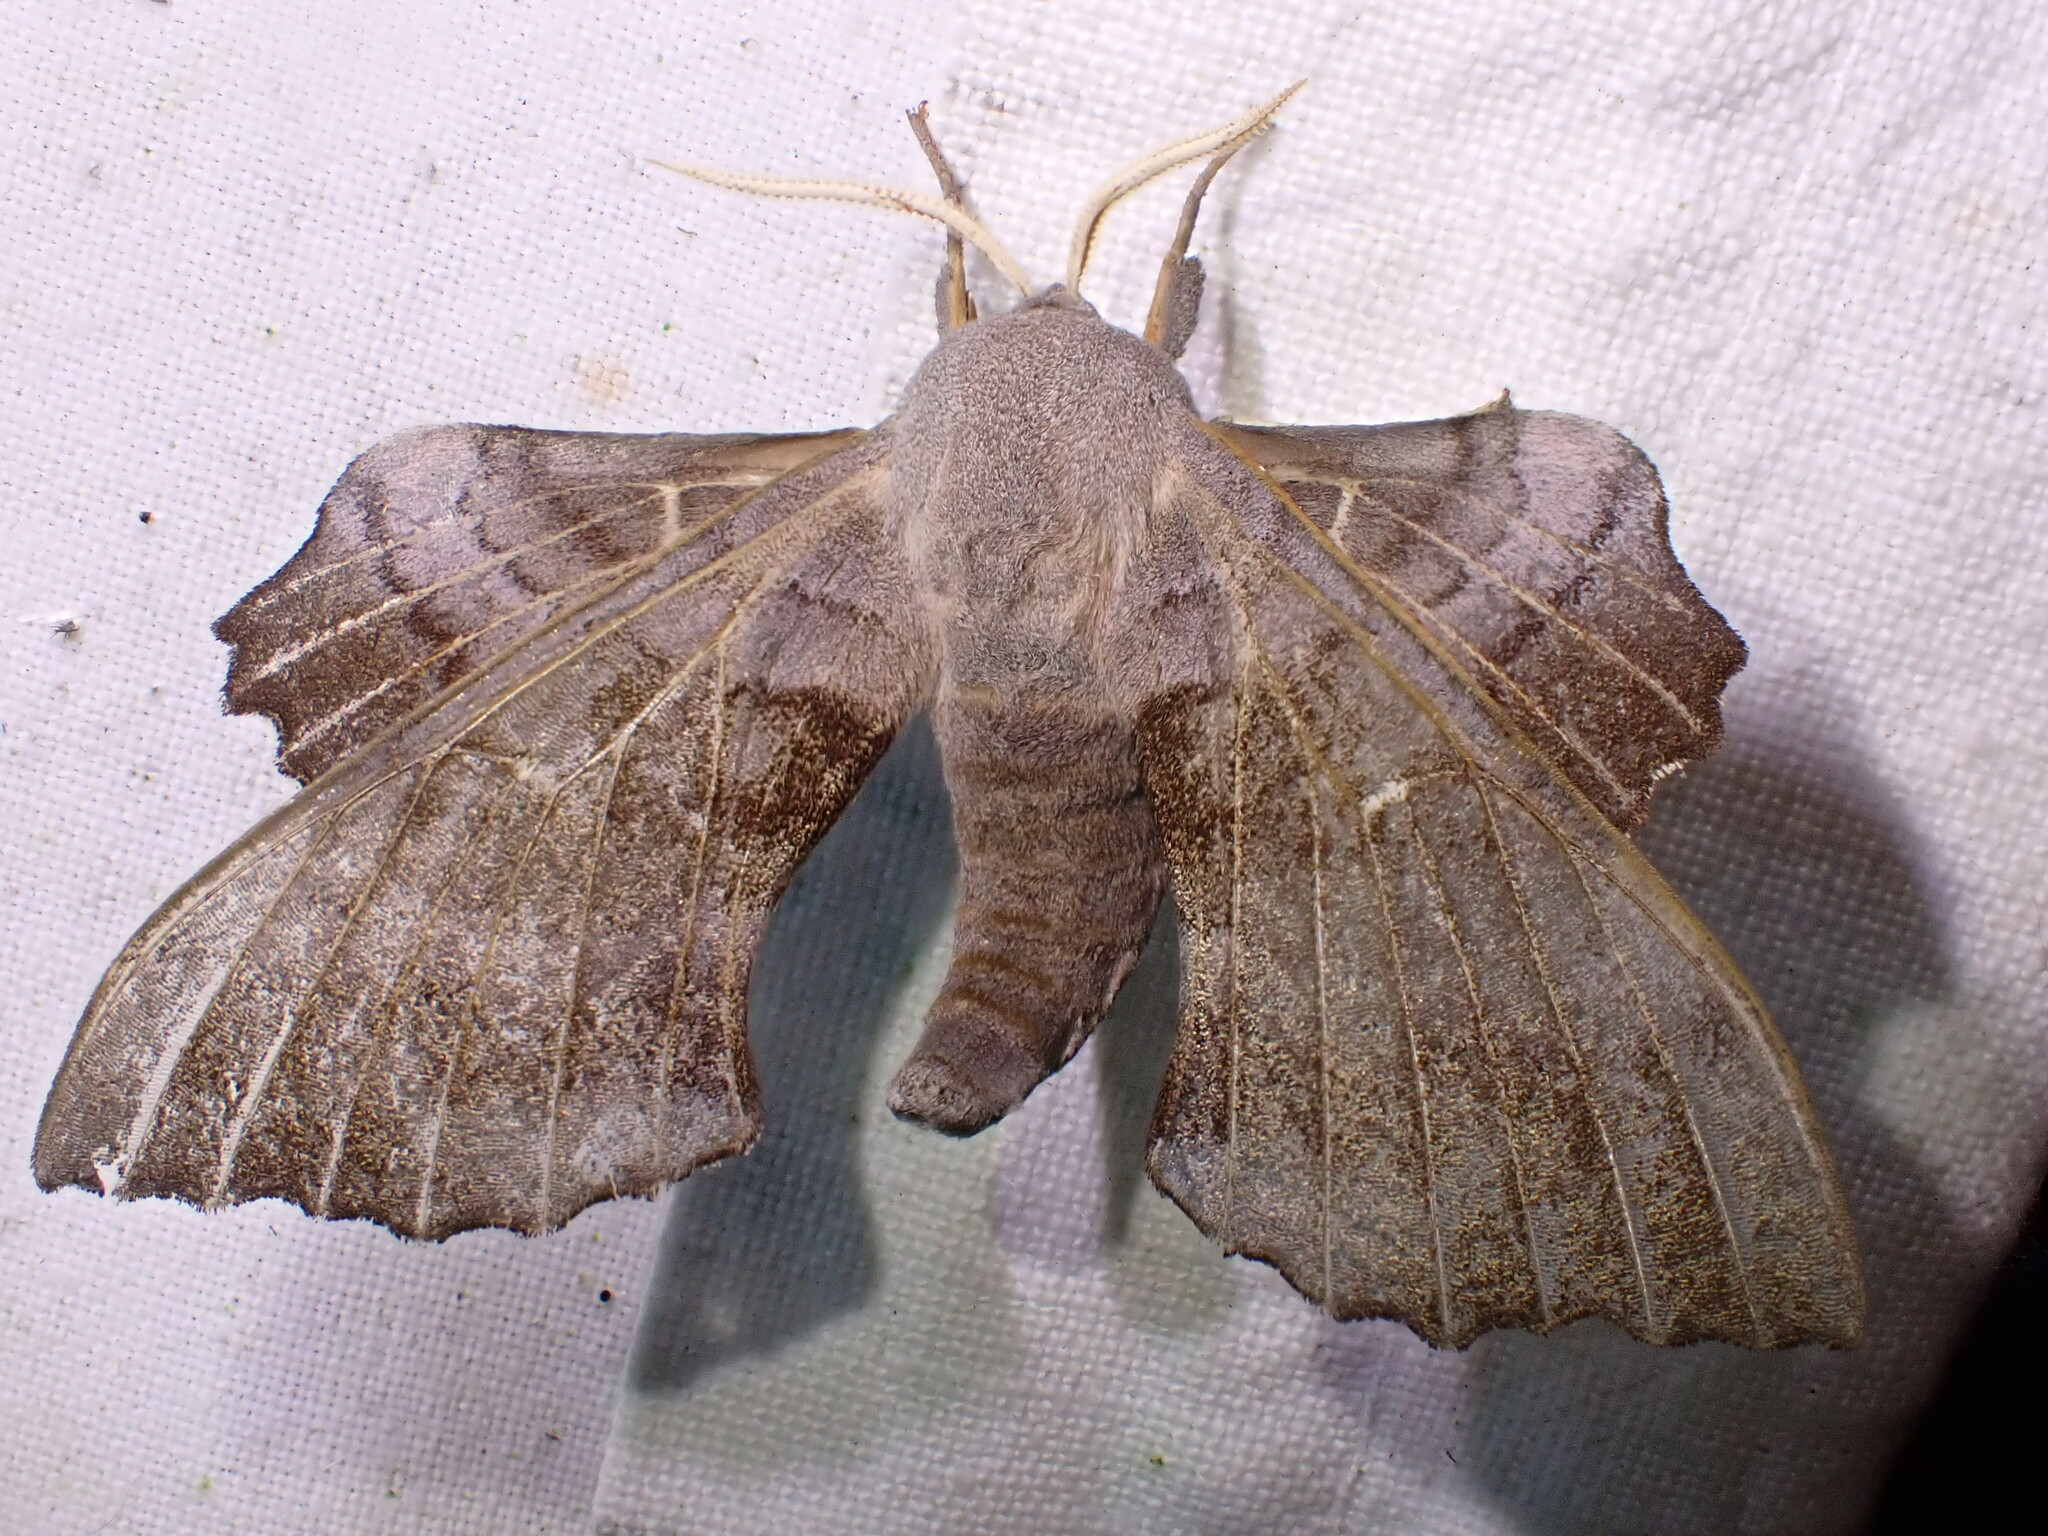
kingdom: Animalia
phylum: Arthropoda
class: Insecta
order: Lepidoptera
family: Sphingidae
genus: Laothoe
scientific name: Laothoe populi
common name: Poplar hawk-moth
